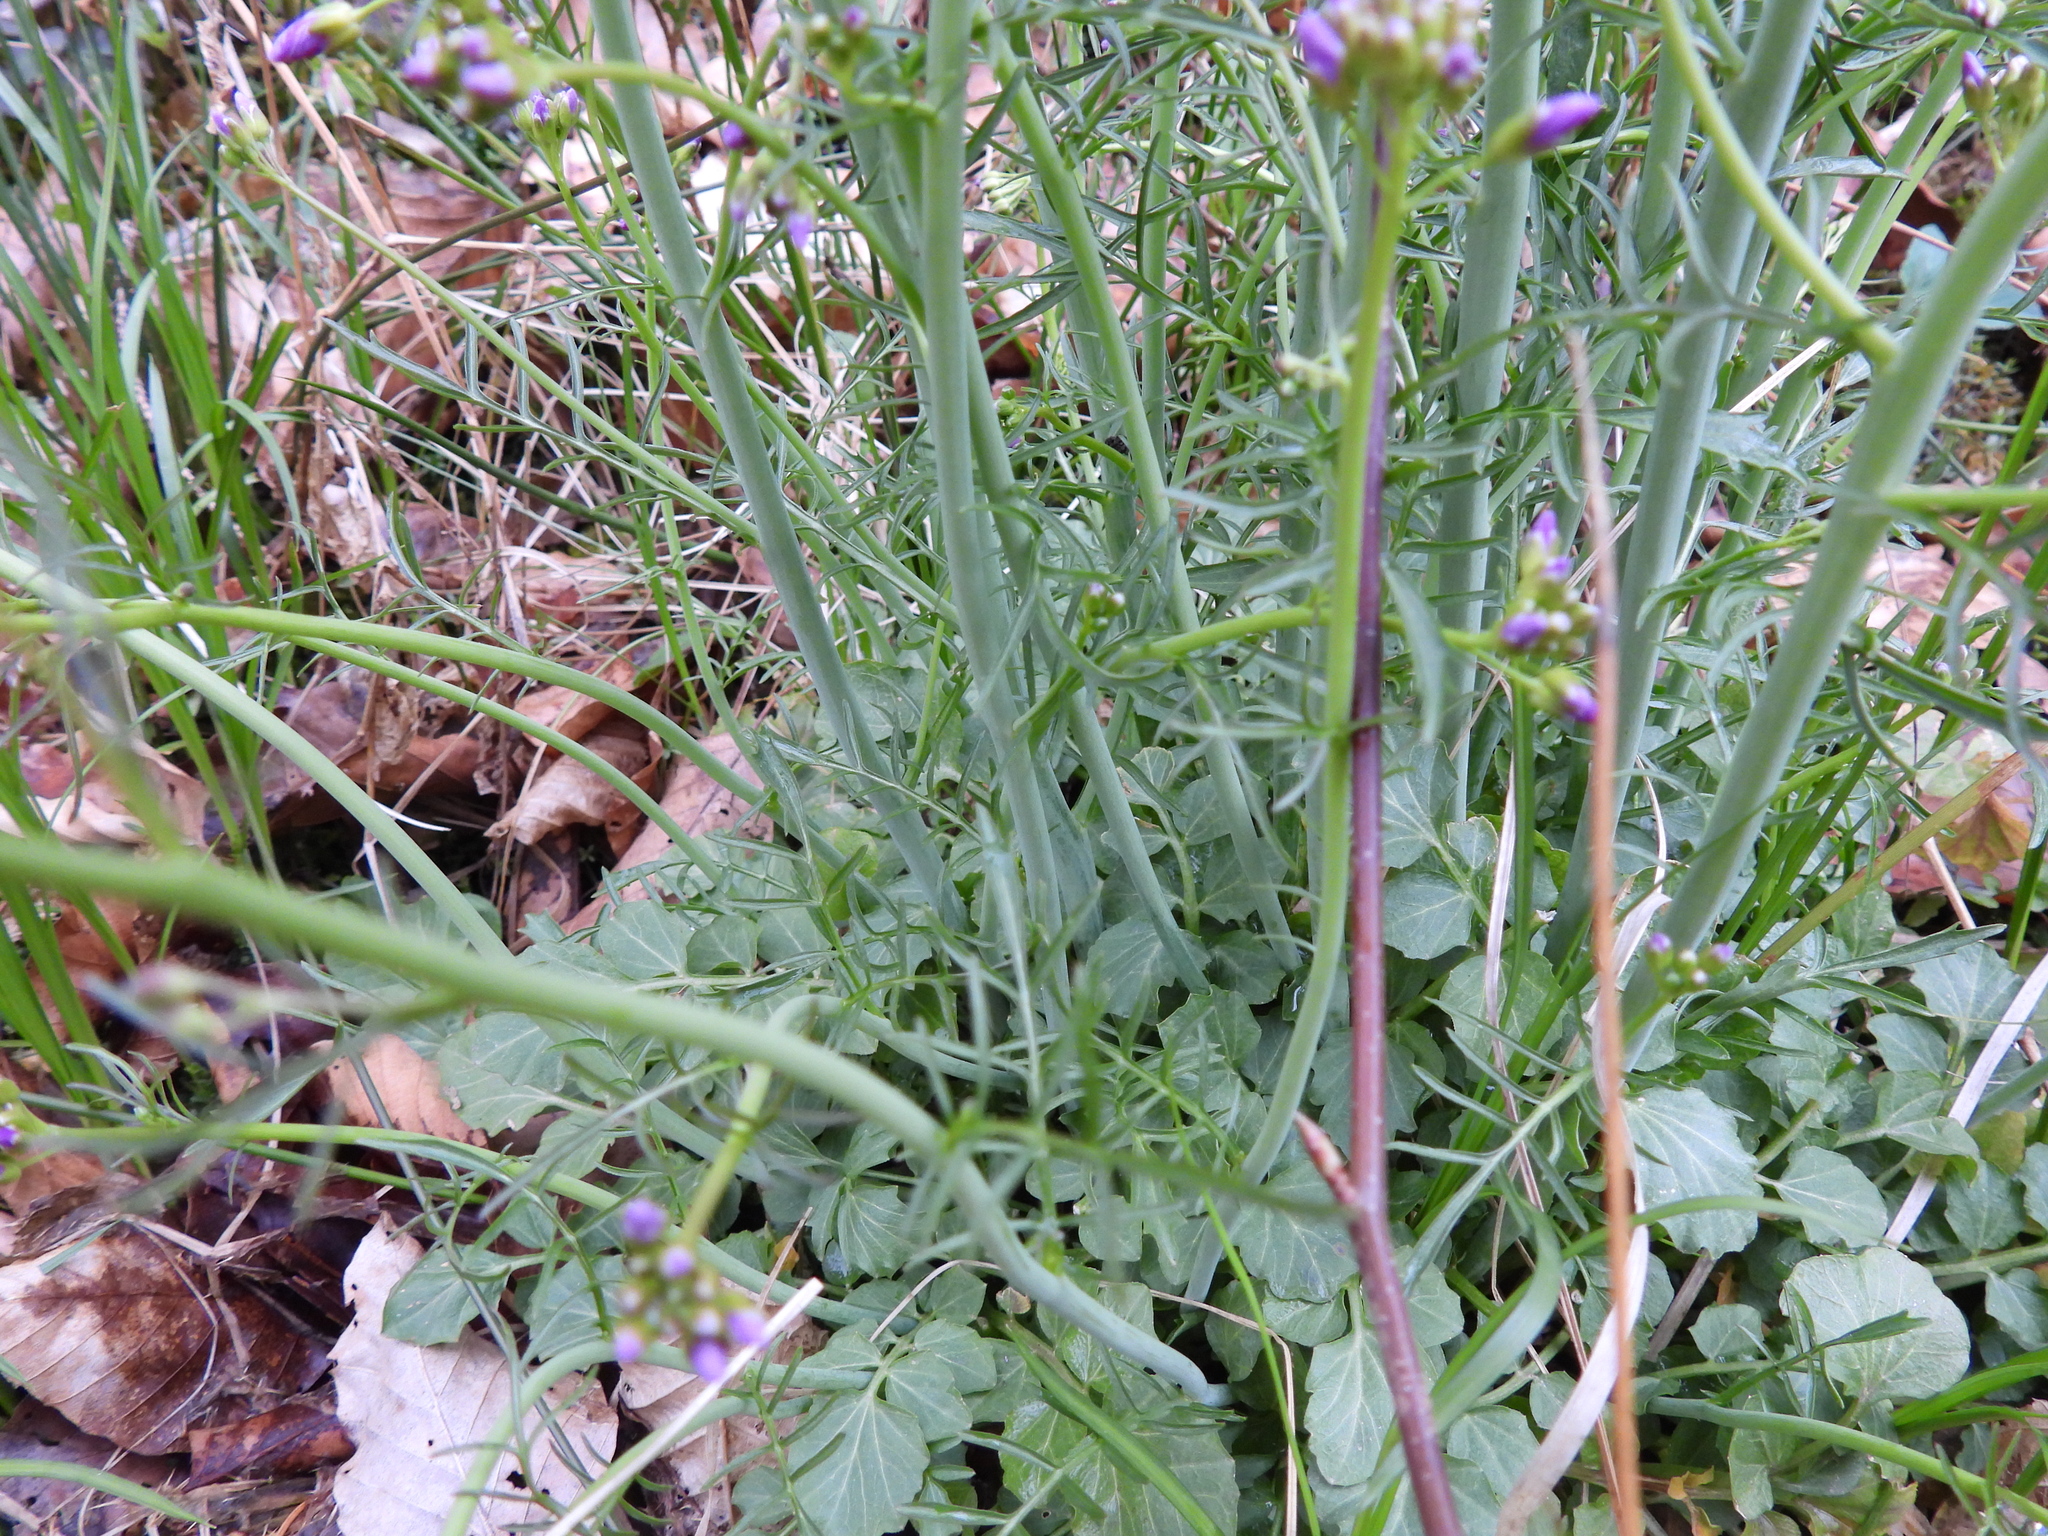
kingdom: Plantae
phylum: Tracheophyta
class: Magnoliopsida
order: Brassicales
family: Brassicaceae
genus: Cardamine
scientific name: Cardamine pratensis
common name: Cuckoo flower
